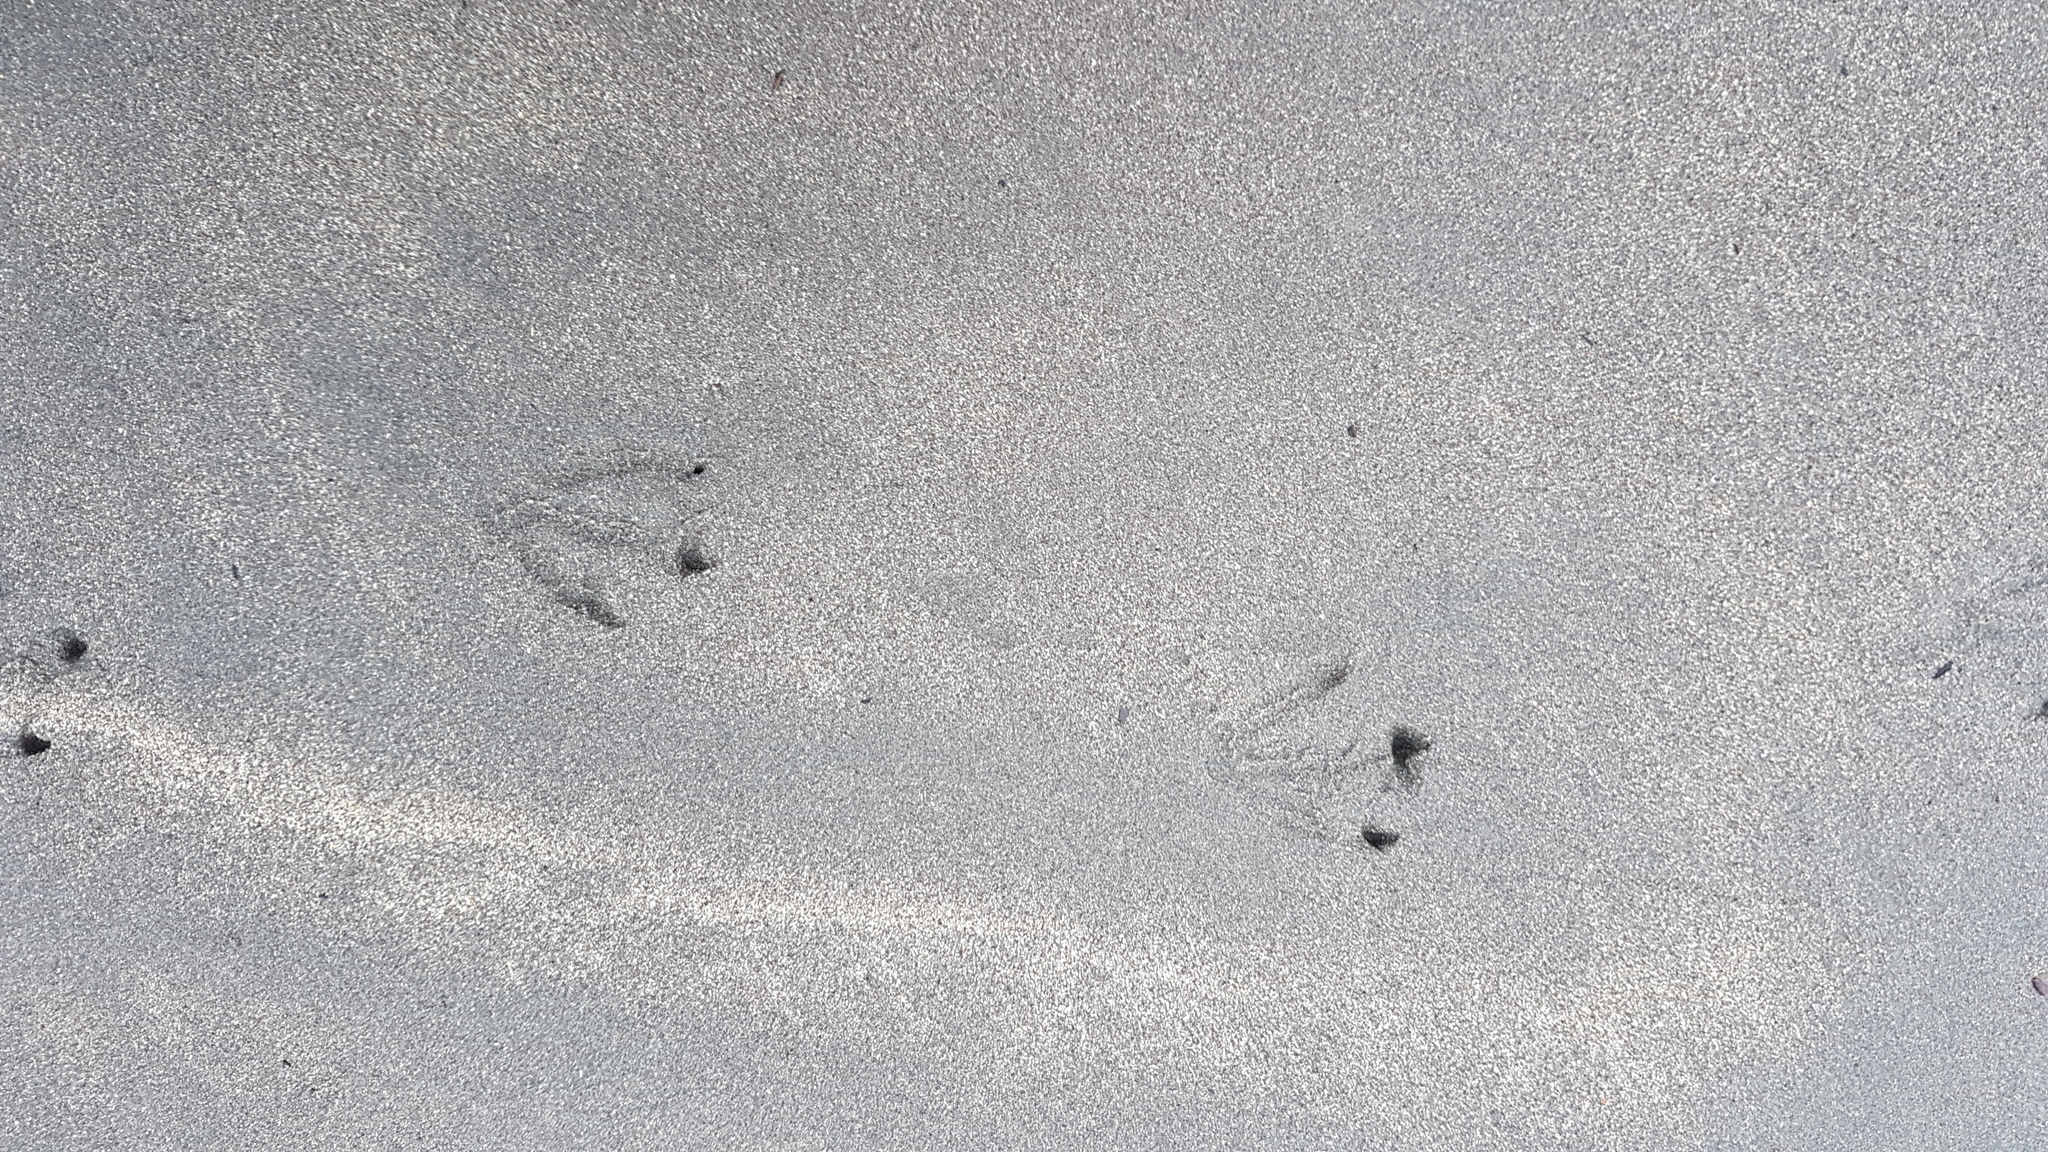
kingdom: Animalia
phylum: Chordata
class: Aves
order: Sphenisciformes
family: Spheniscidae
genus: Eudyptula
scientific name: Eudyptula minor
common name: Little penguin
